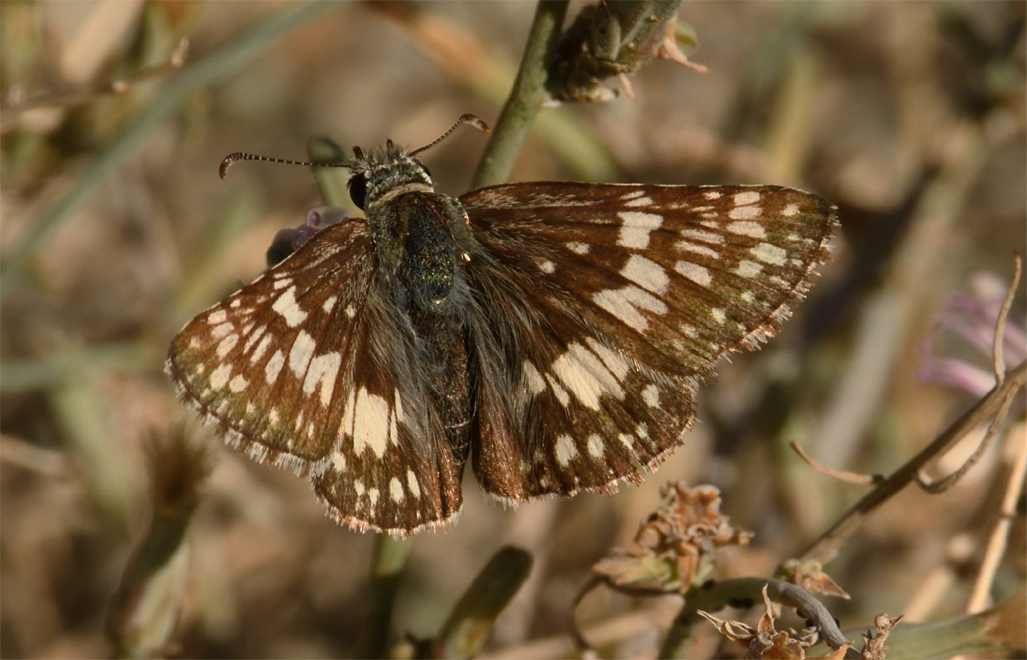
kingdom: Animalia
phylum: Arthropoda
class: Insecta
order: Lepidoptera
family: Hesperiidae
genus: Burnsius
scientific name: Burnsius albezens
